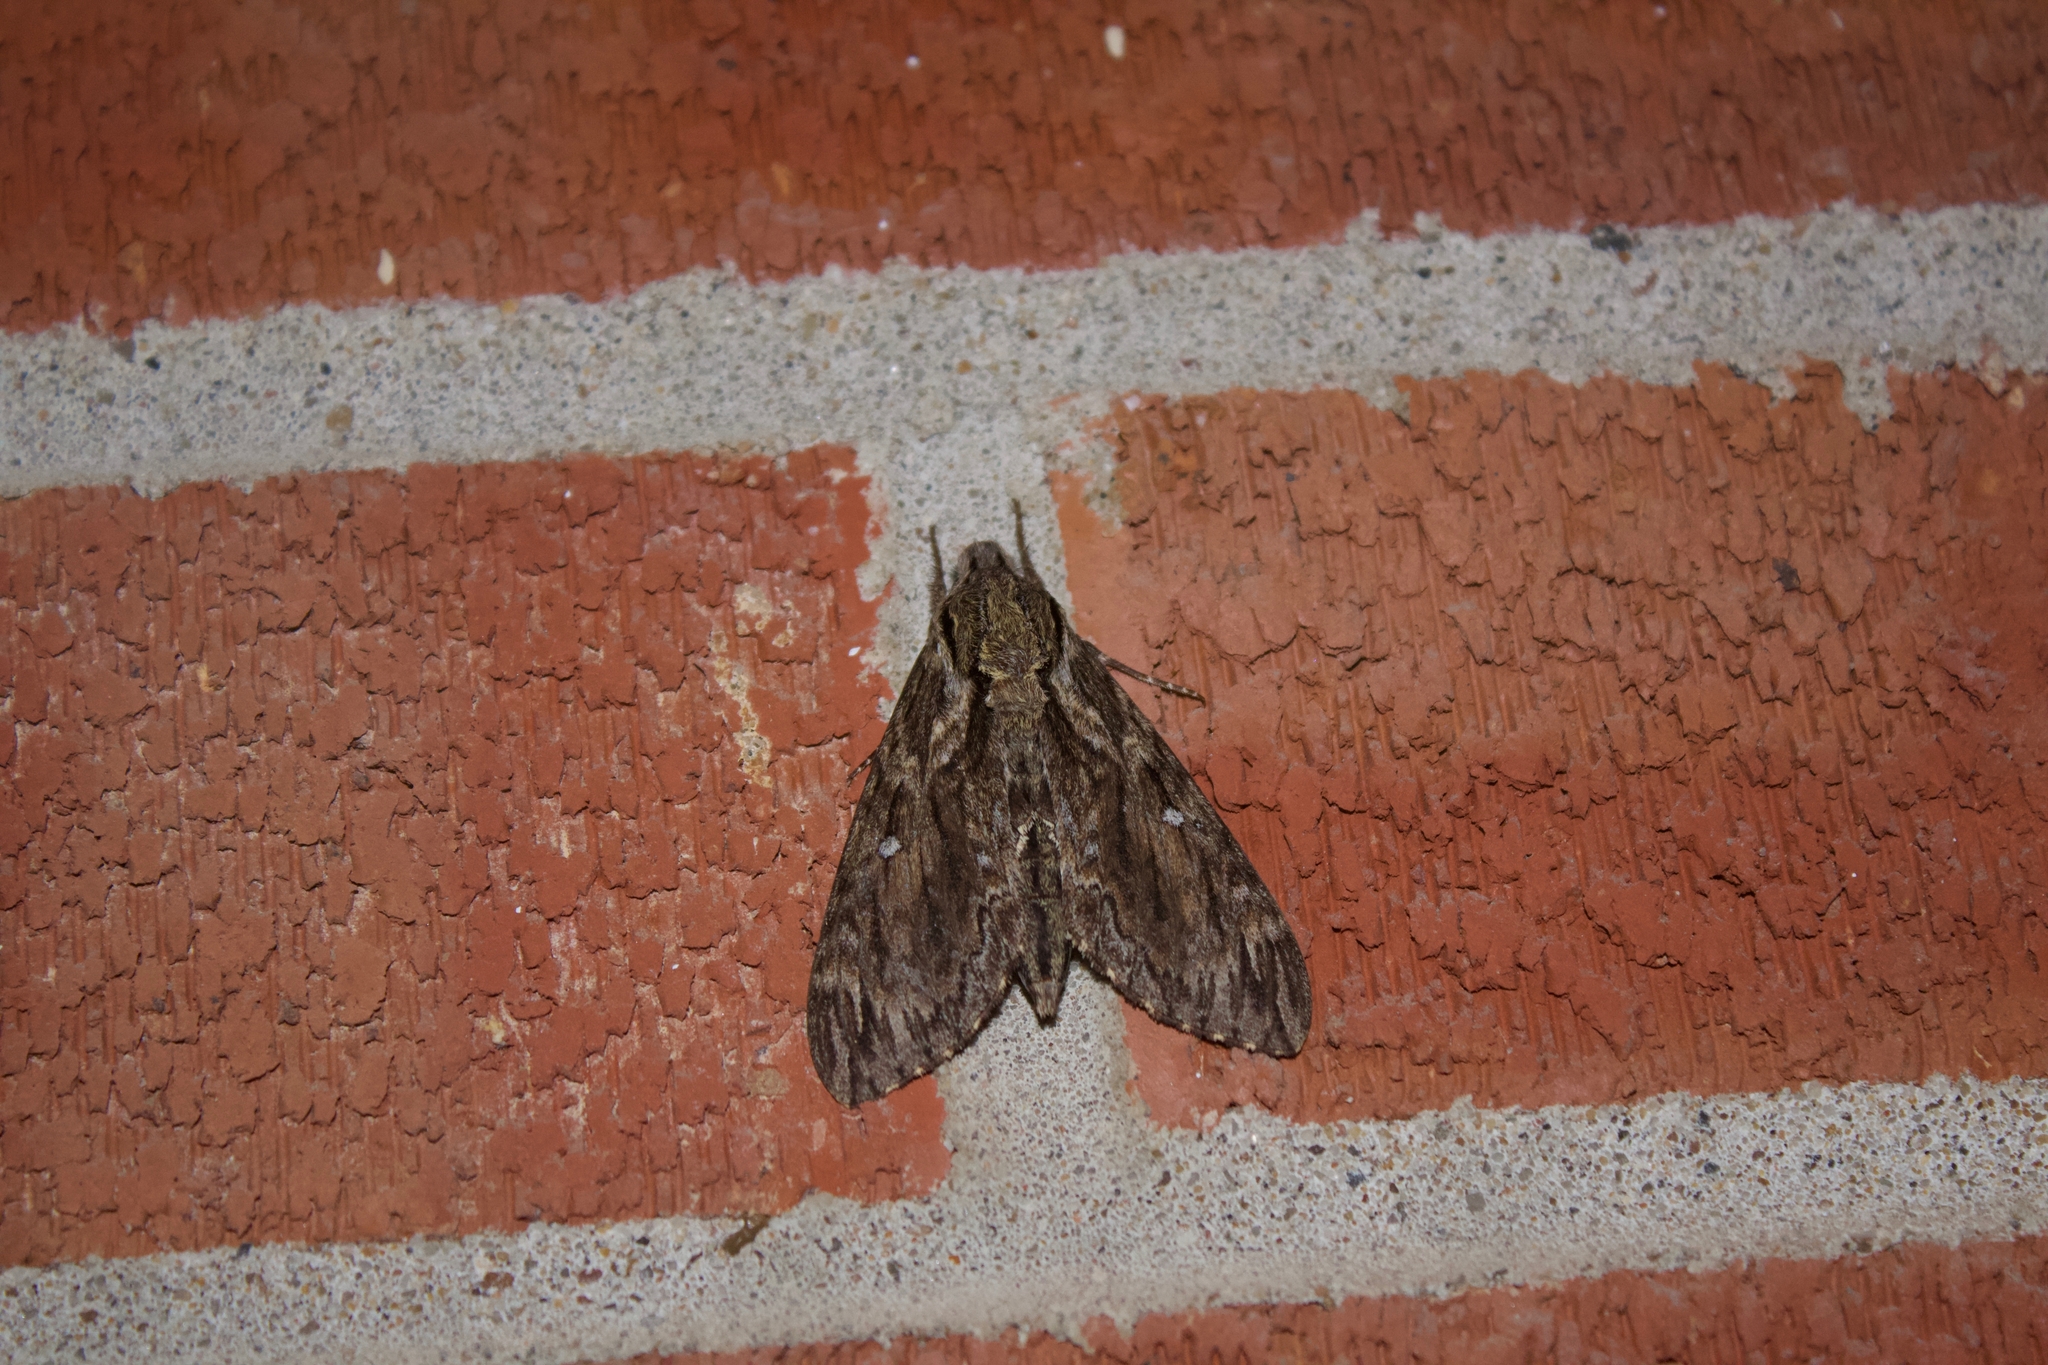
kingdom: Animalia
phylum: Arthropoda
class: Insecta
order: Lepidoptera
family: Sphingidae
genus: Lintneria
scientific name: Lintneria eremitus
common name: Hermit sphinx
